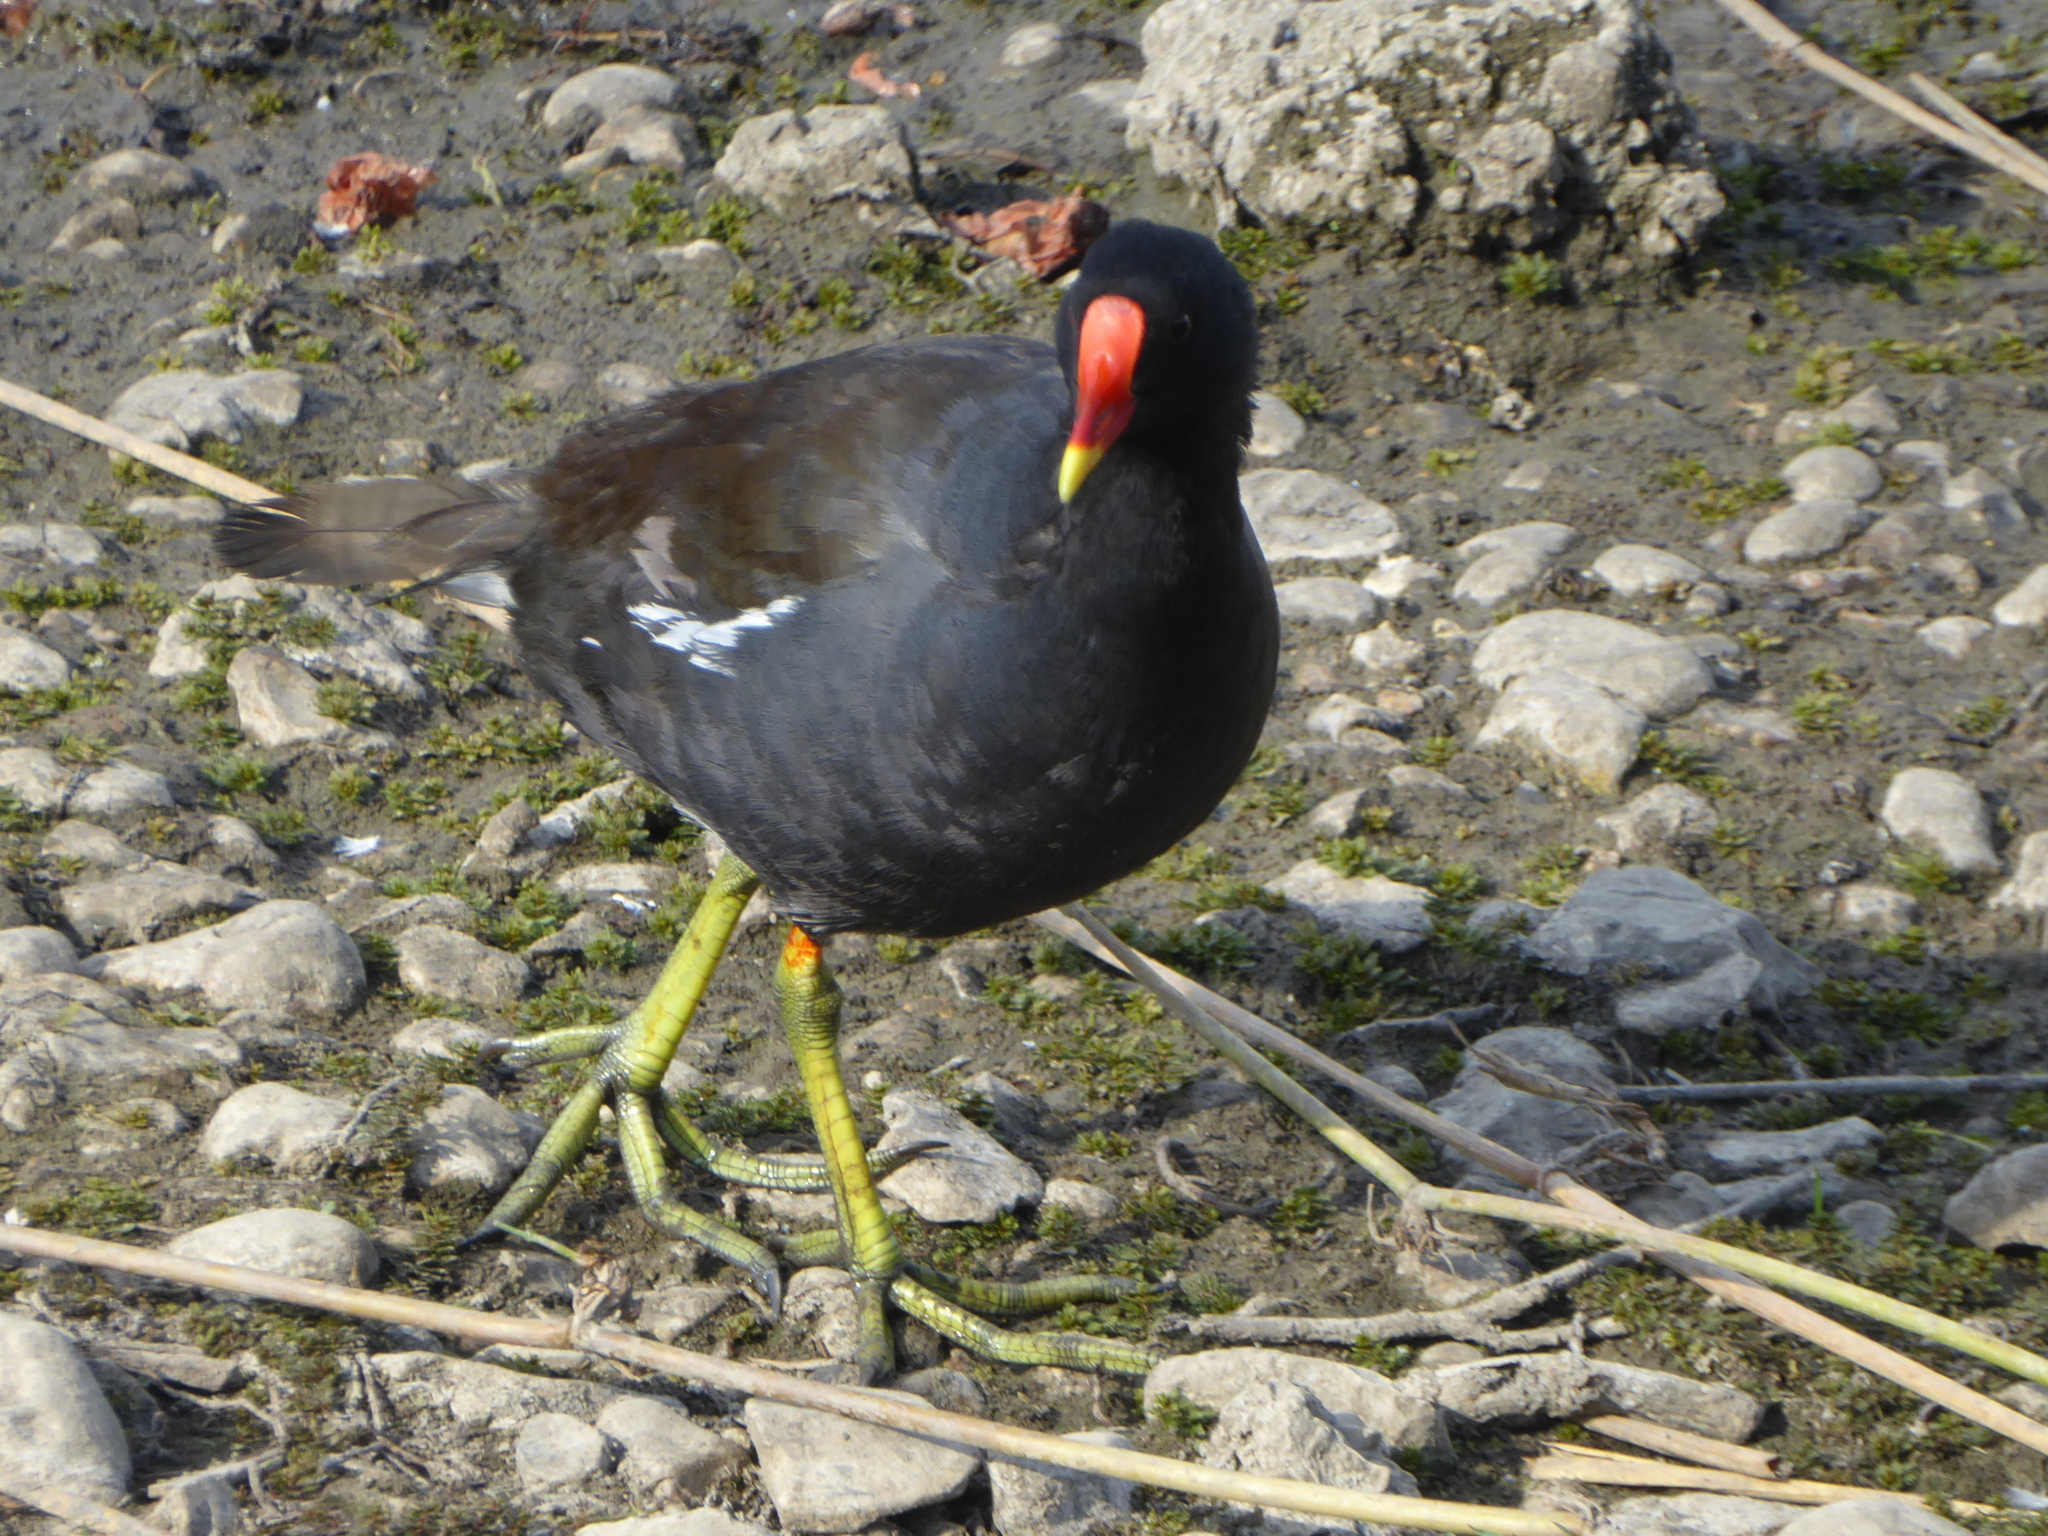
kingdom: Animalia
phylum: Chordata
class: Aves
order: Gruiformes
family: Rallidae
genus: Gallinula
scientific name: Gallinula chloropus
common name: Common moorhen
